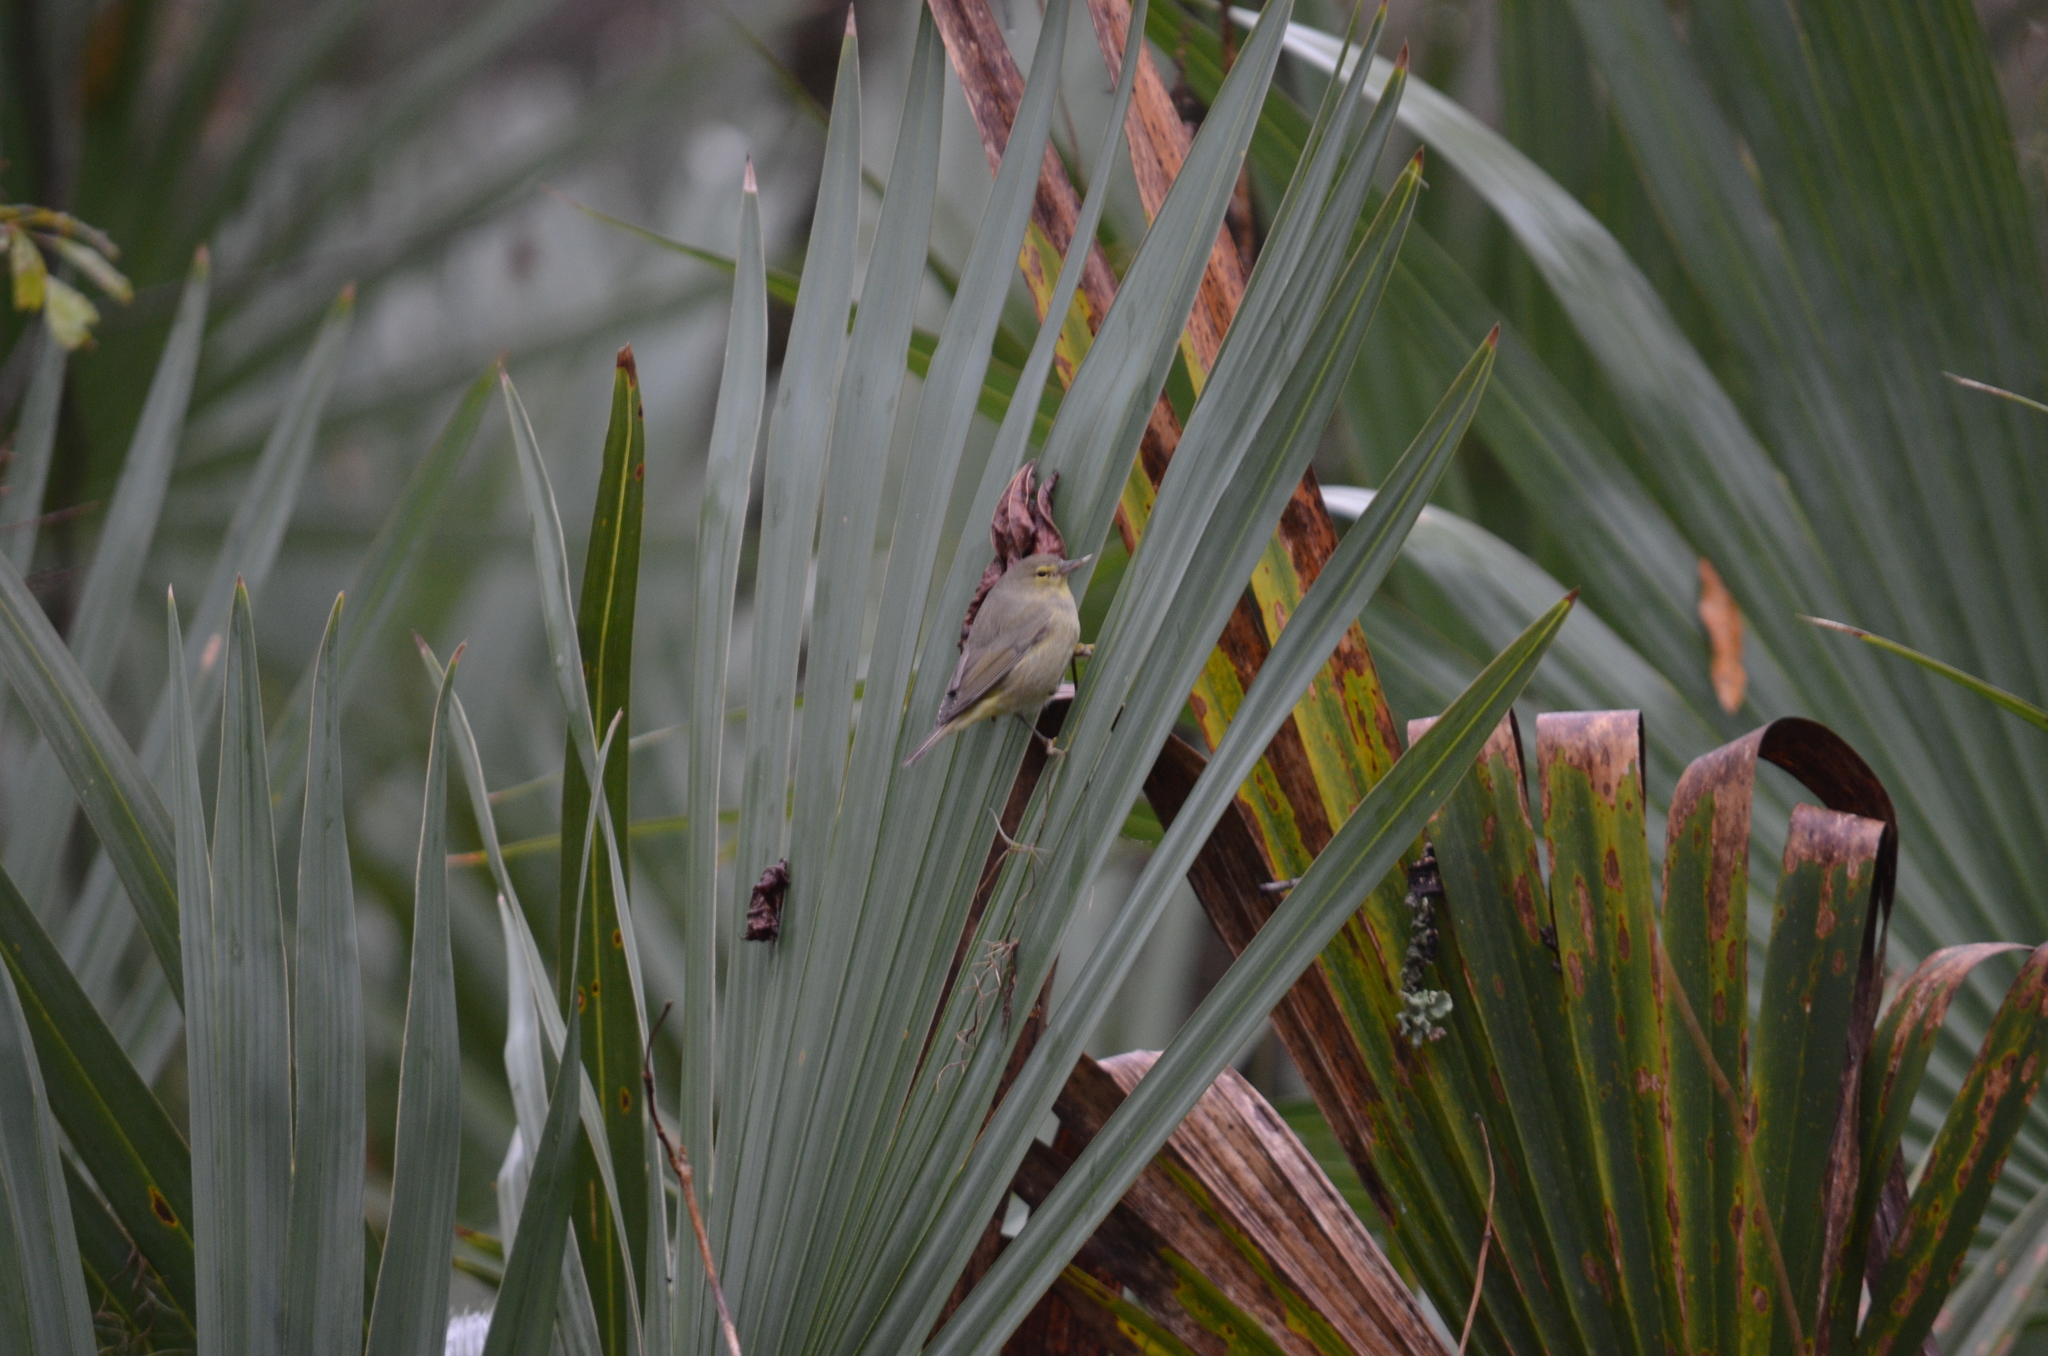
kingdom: Animalia
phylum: Chordata
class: Aves
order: Passeriformes
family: Parulidae
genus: Leiothlypis
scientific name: Leiothlypis celata
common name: Orange-crowned warbler
